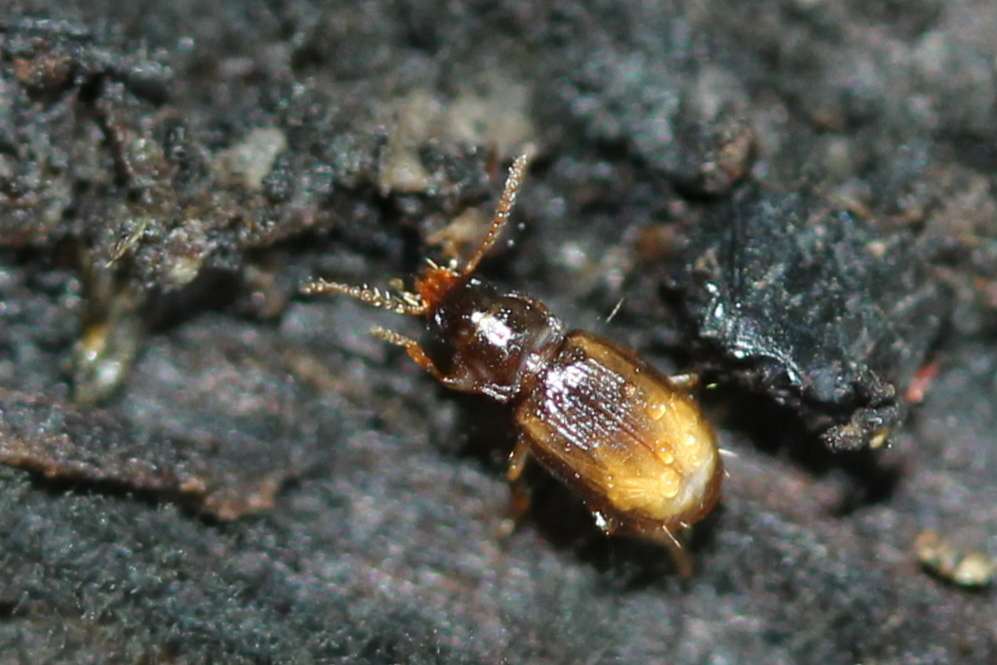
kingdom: Animalia
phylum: Arthropoda
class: Insecta
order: Coleoptera
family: Carabidae
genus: Mioptachys
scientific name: Mioptachys flavicauda
